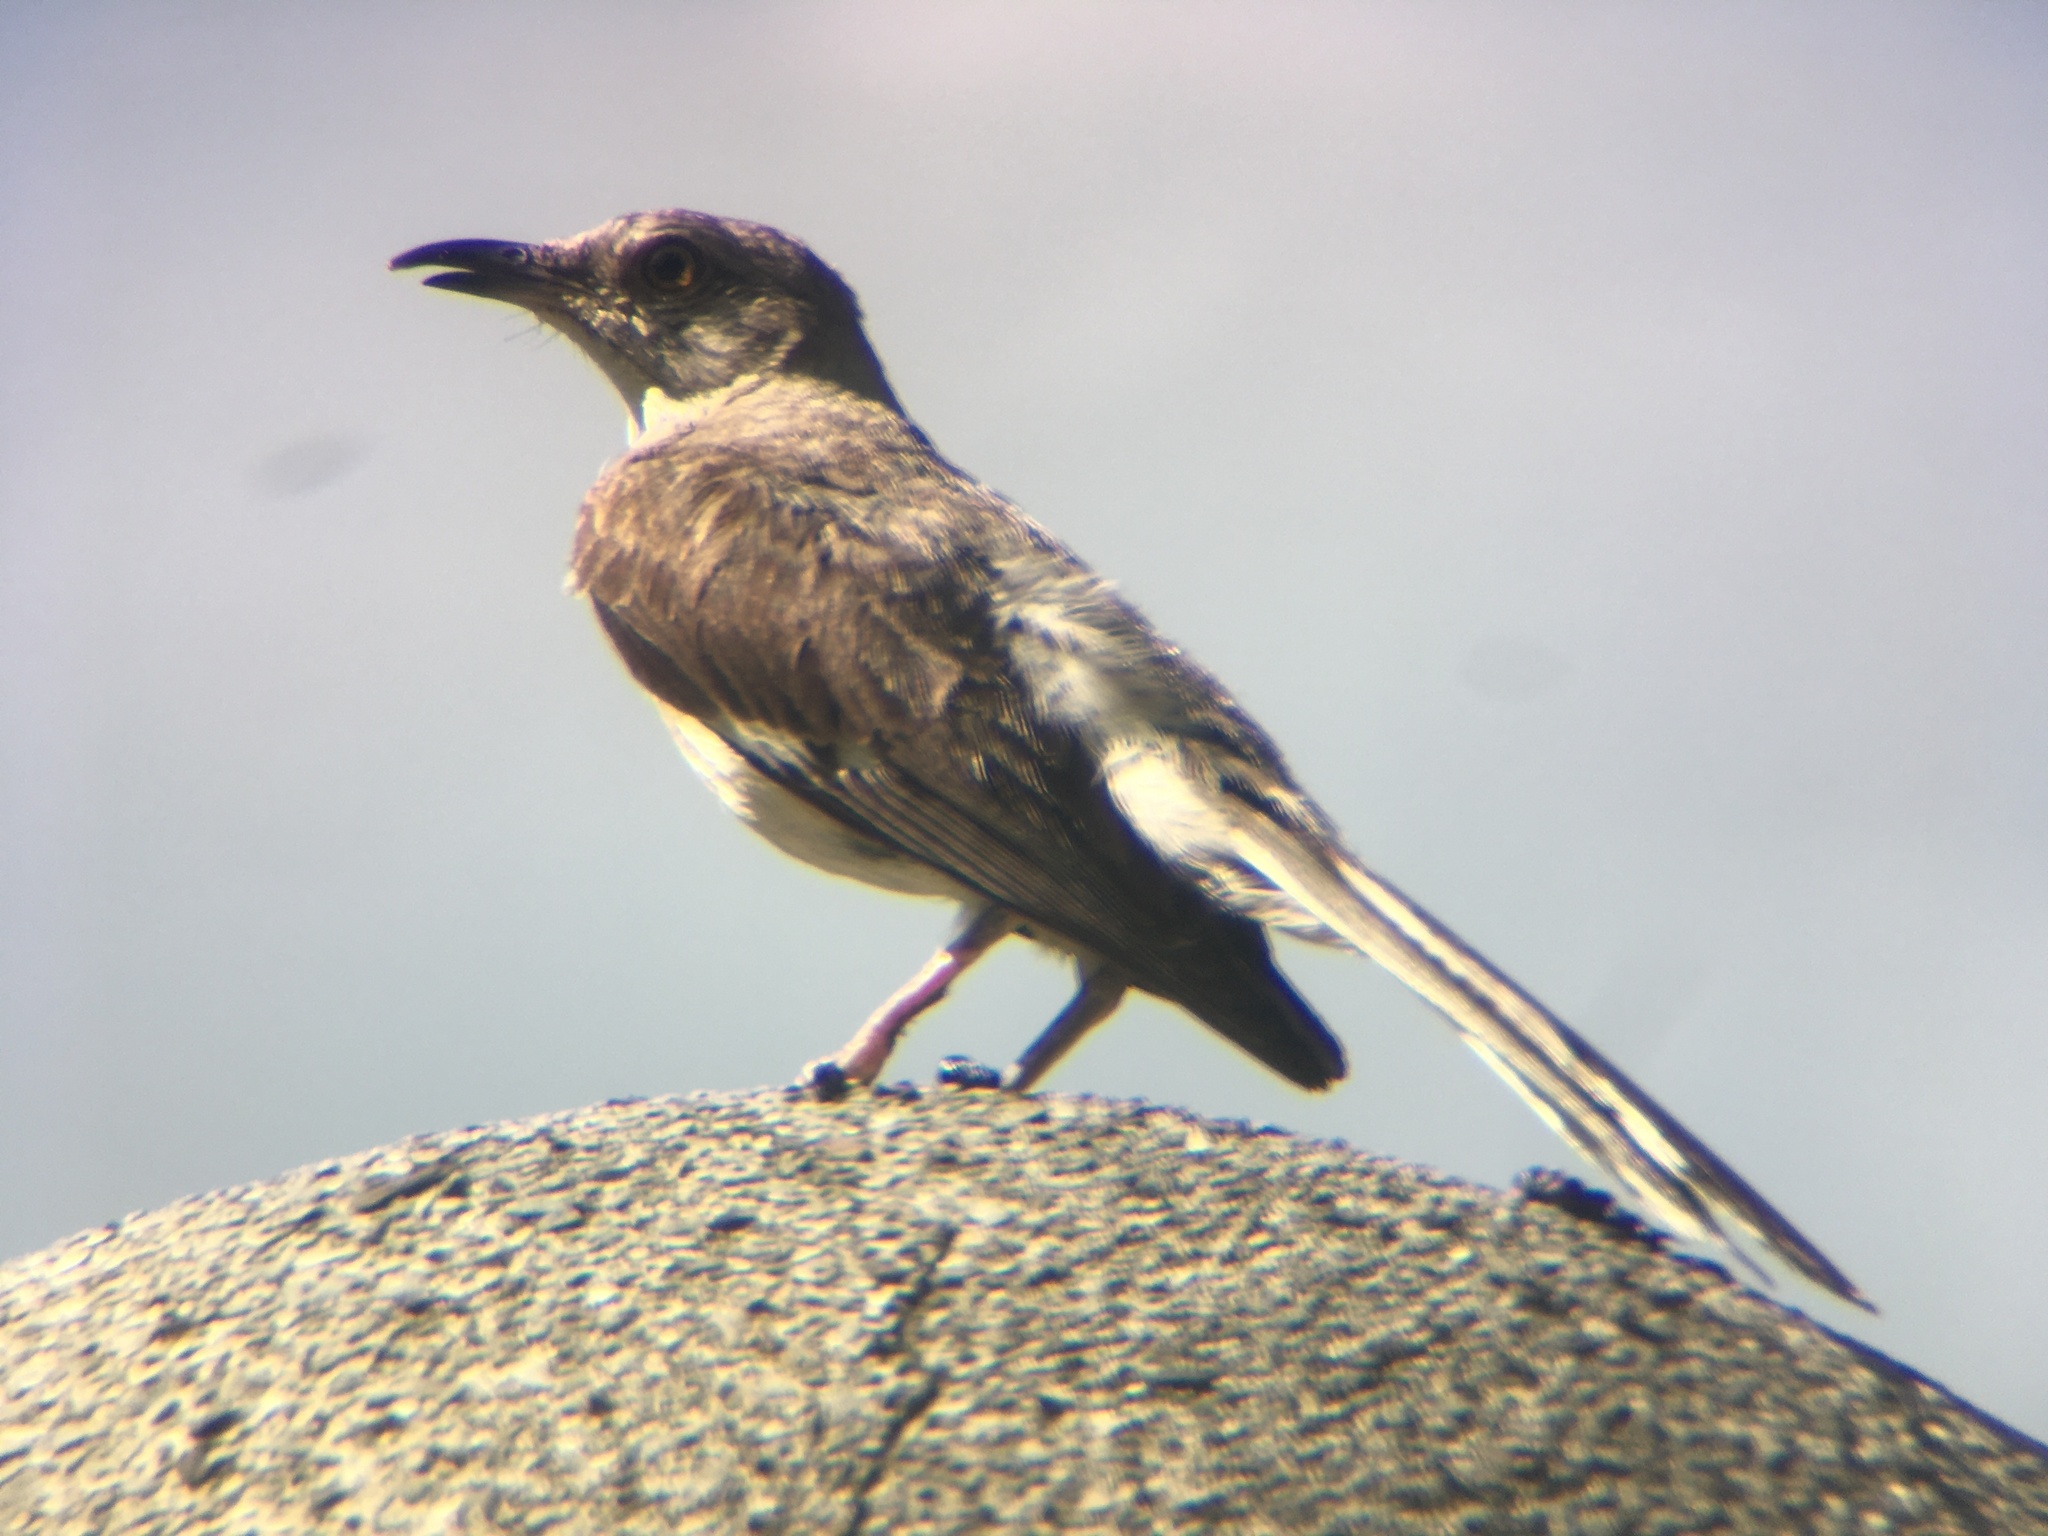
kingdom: Animalia
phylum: Chordata
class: Aves
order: Passeriformes
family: Mimidae
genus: Mimus
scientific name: Mimus polyglottos
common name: Northern mockingbird
